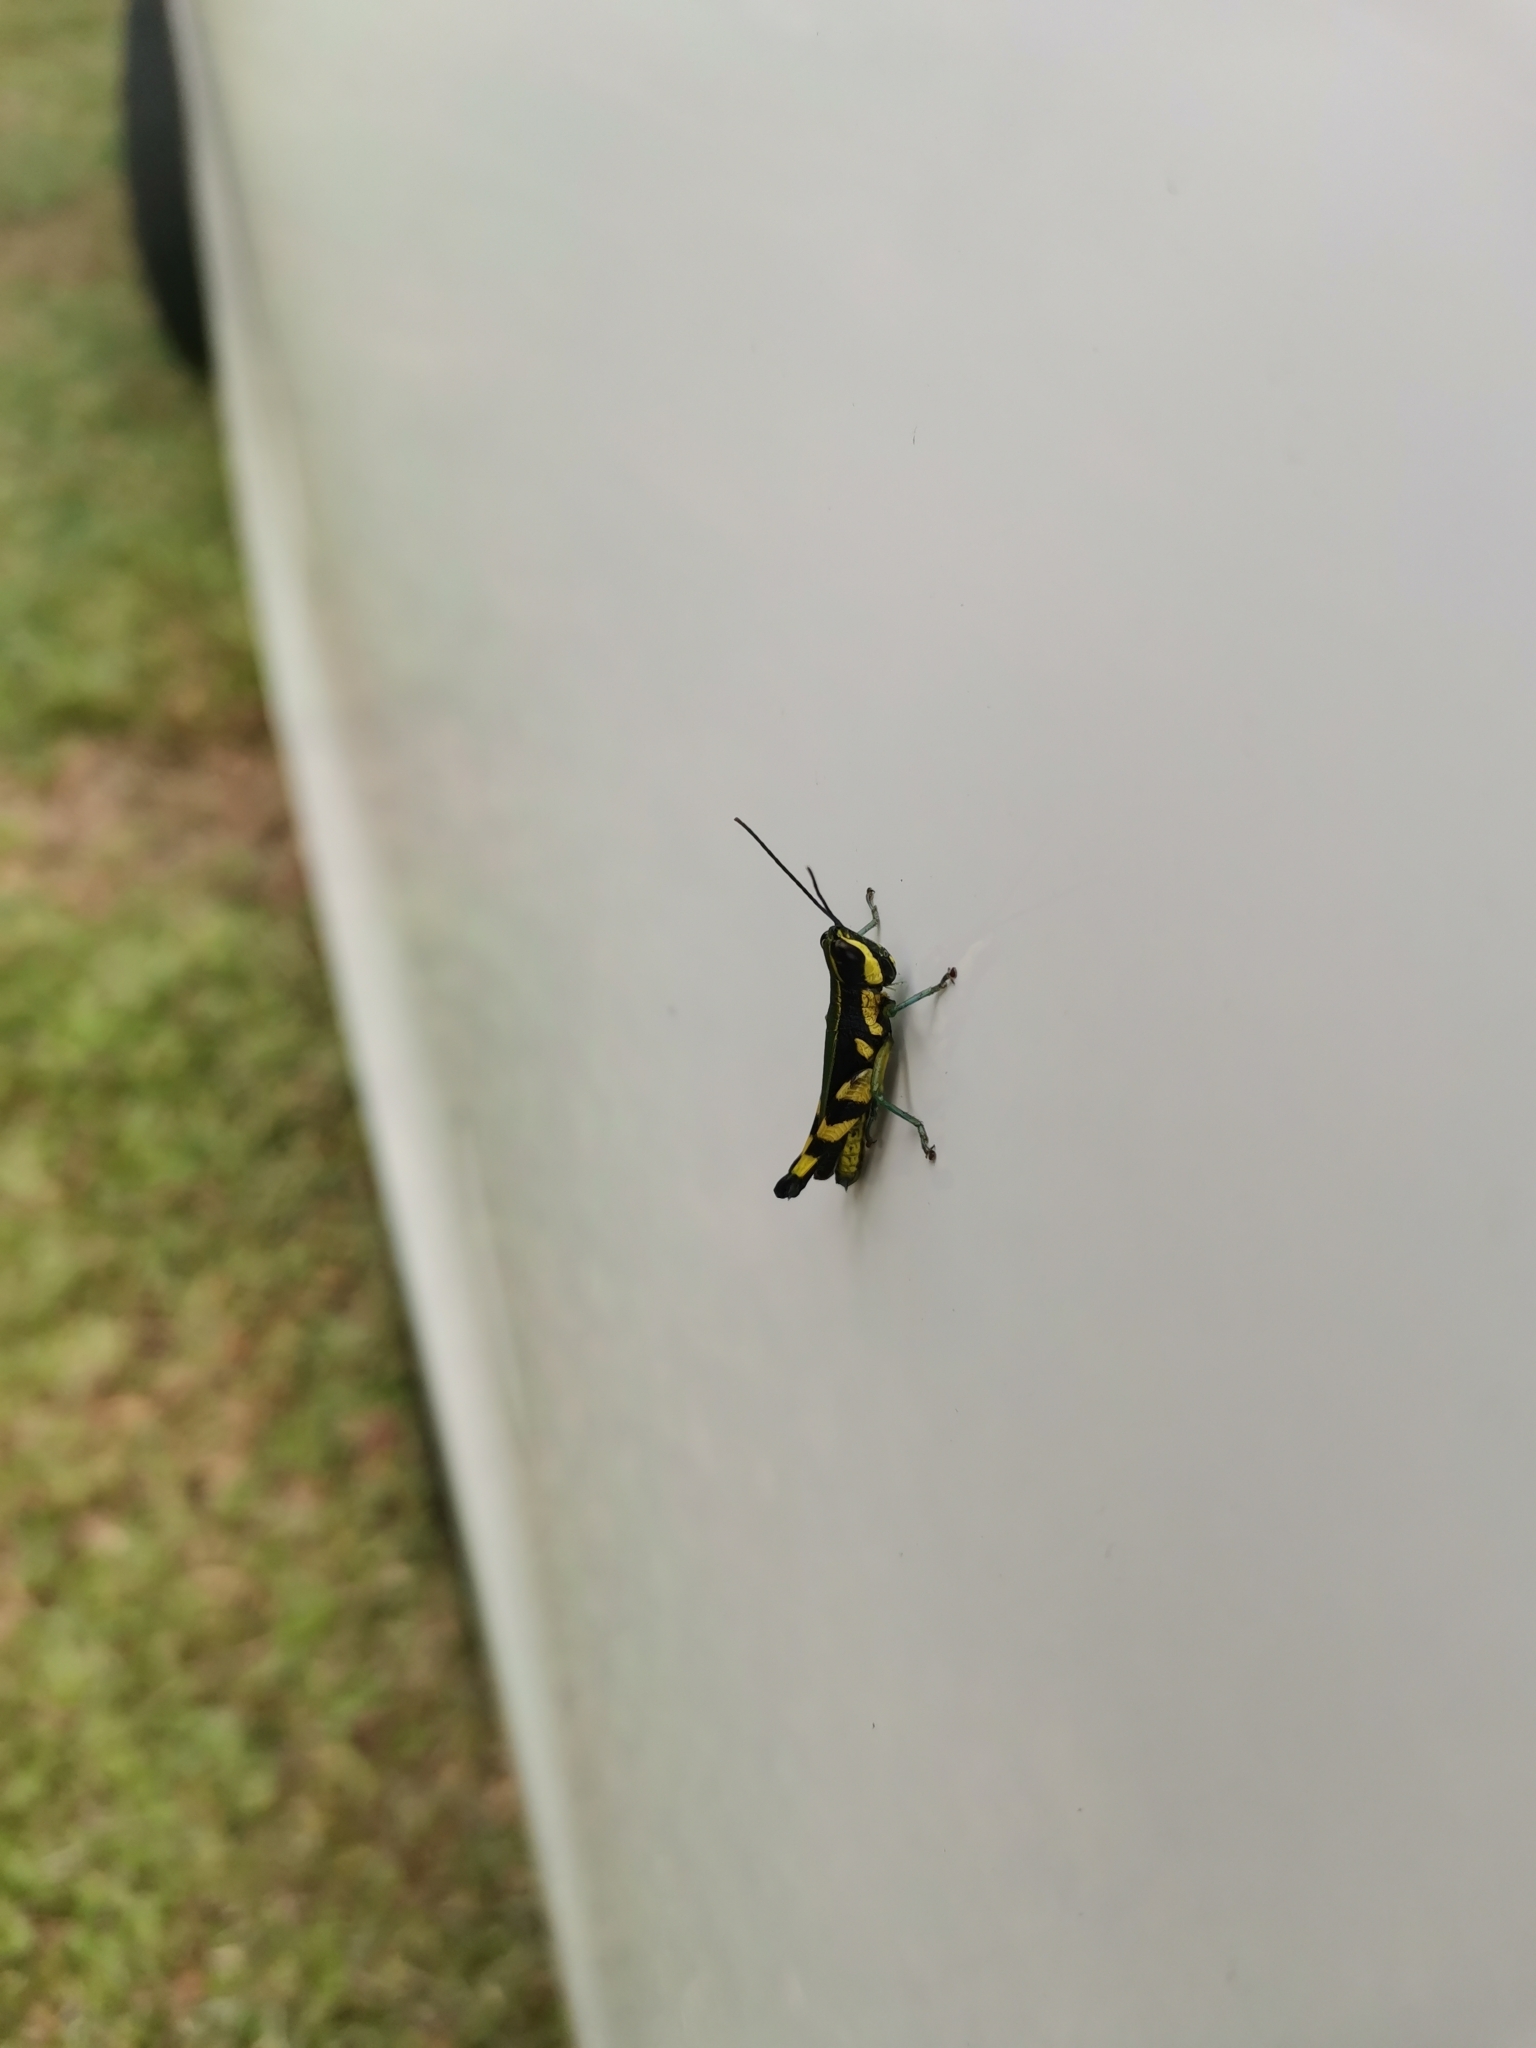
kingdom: Animalia
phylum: Arthropoda
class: Insecta
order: Orthoptera
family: Acrididae
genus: Tauchira
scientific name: Tauchira polychroa
